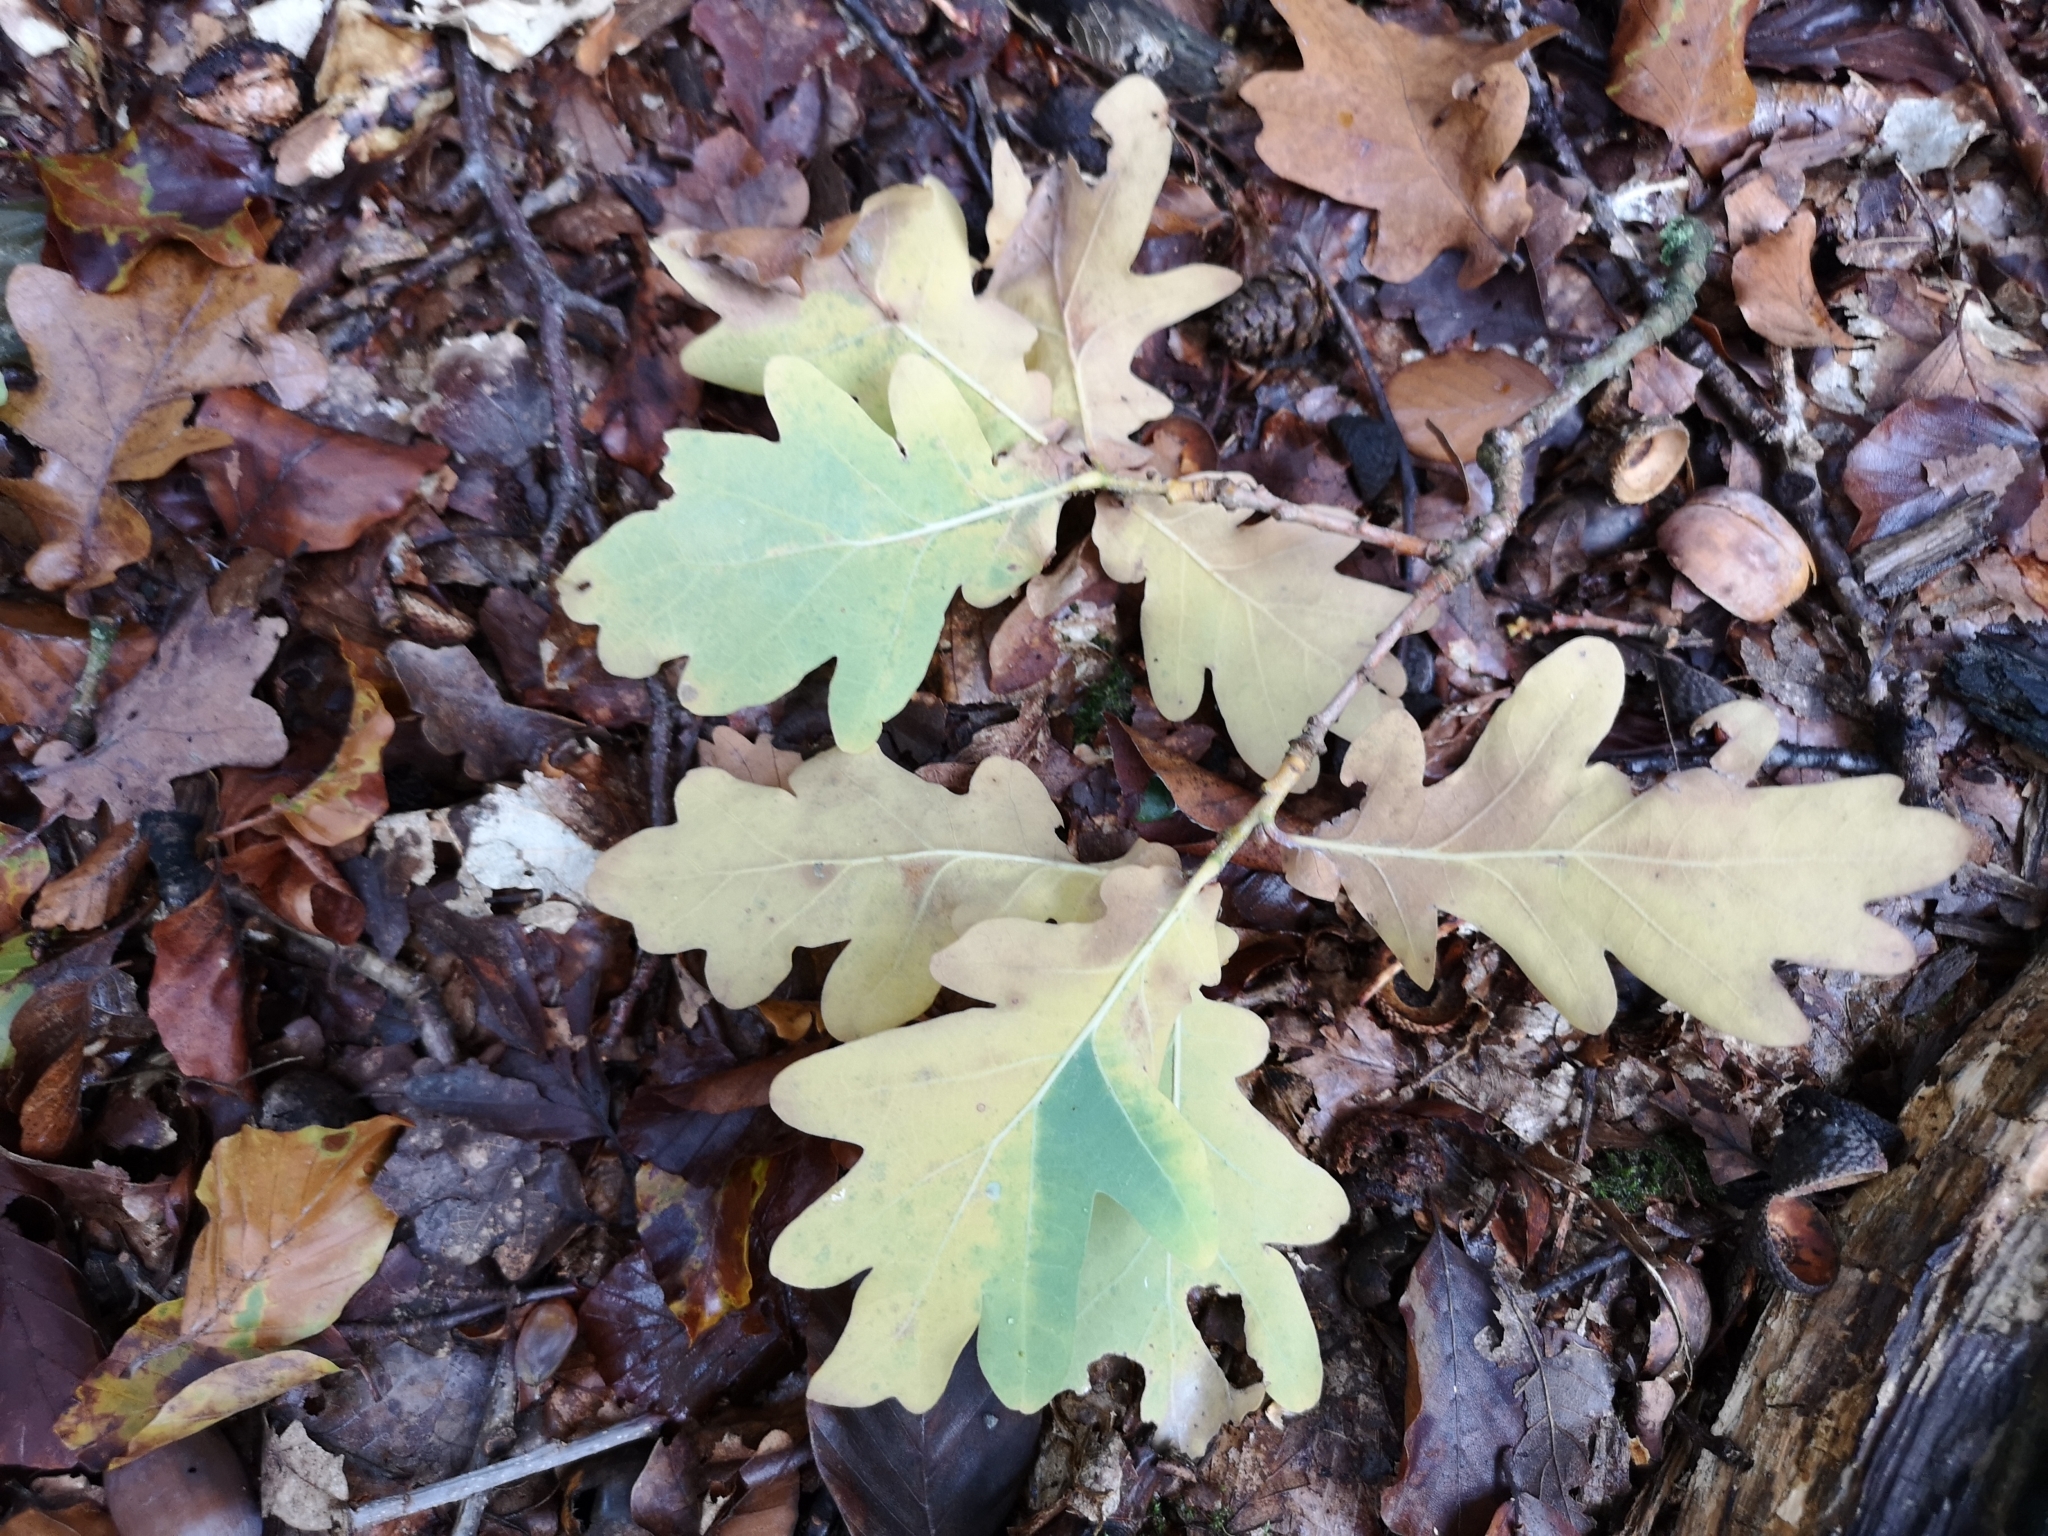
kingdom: Plantae
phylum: Tracheophyta
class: Magnoliopsida
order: Fagales
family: Fagaceae
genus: Quercus
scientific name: Quercus robur
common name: Pedunculate oak
